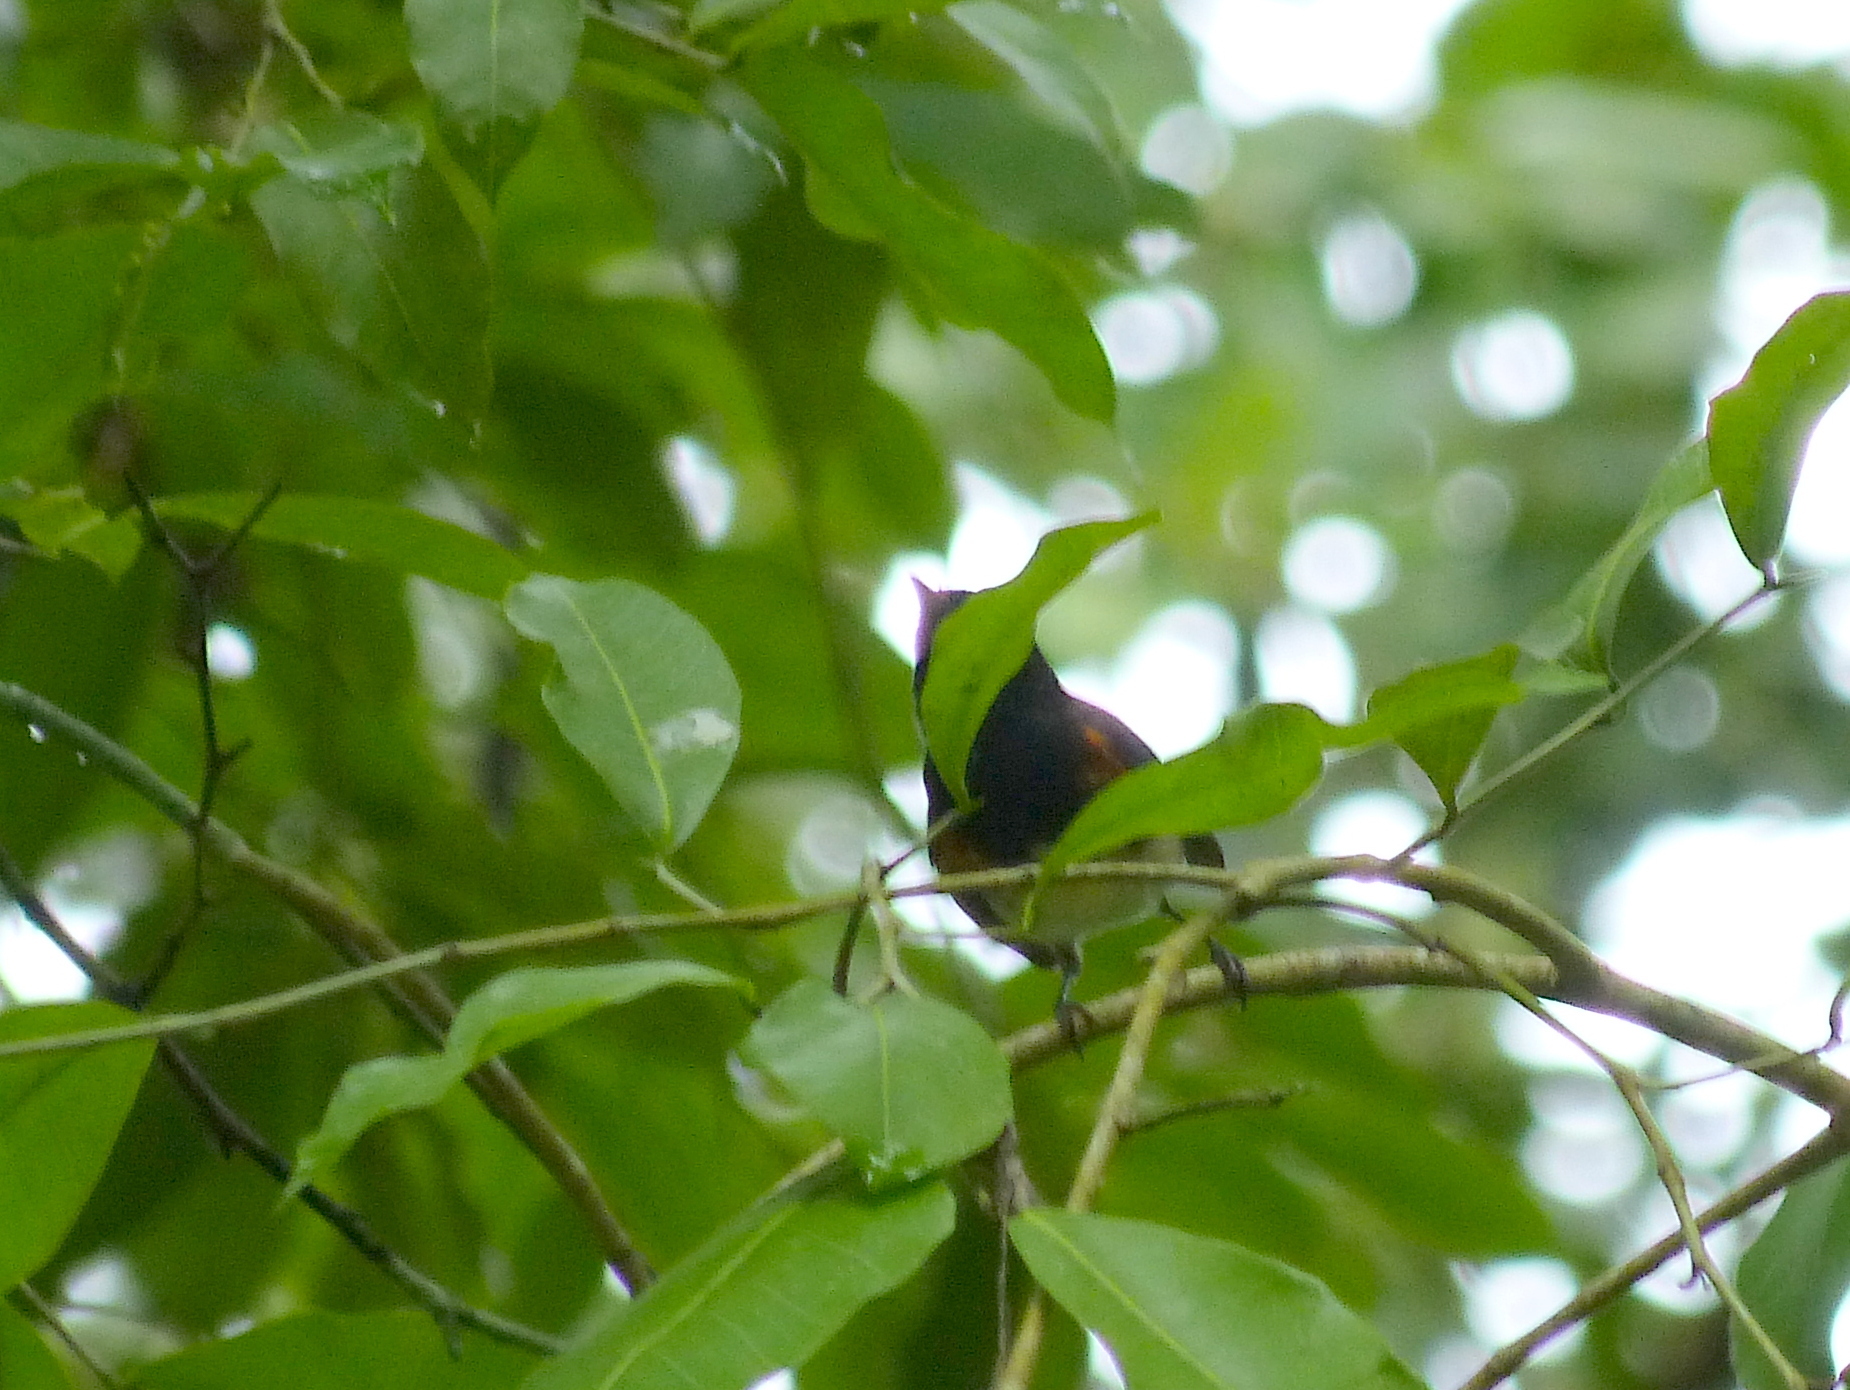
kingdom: Animalia
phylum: Chordata
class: Aves
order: Passeriformes
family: Parulidae
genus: Setophaga
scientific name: Setophaga ruticilla
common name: American redstart
